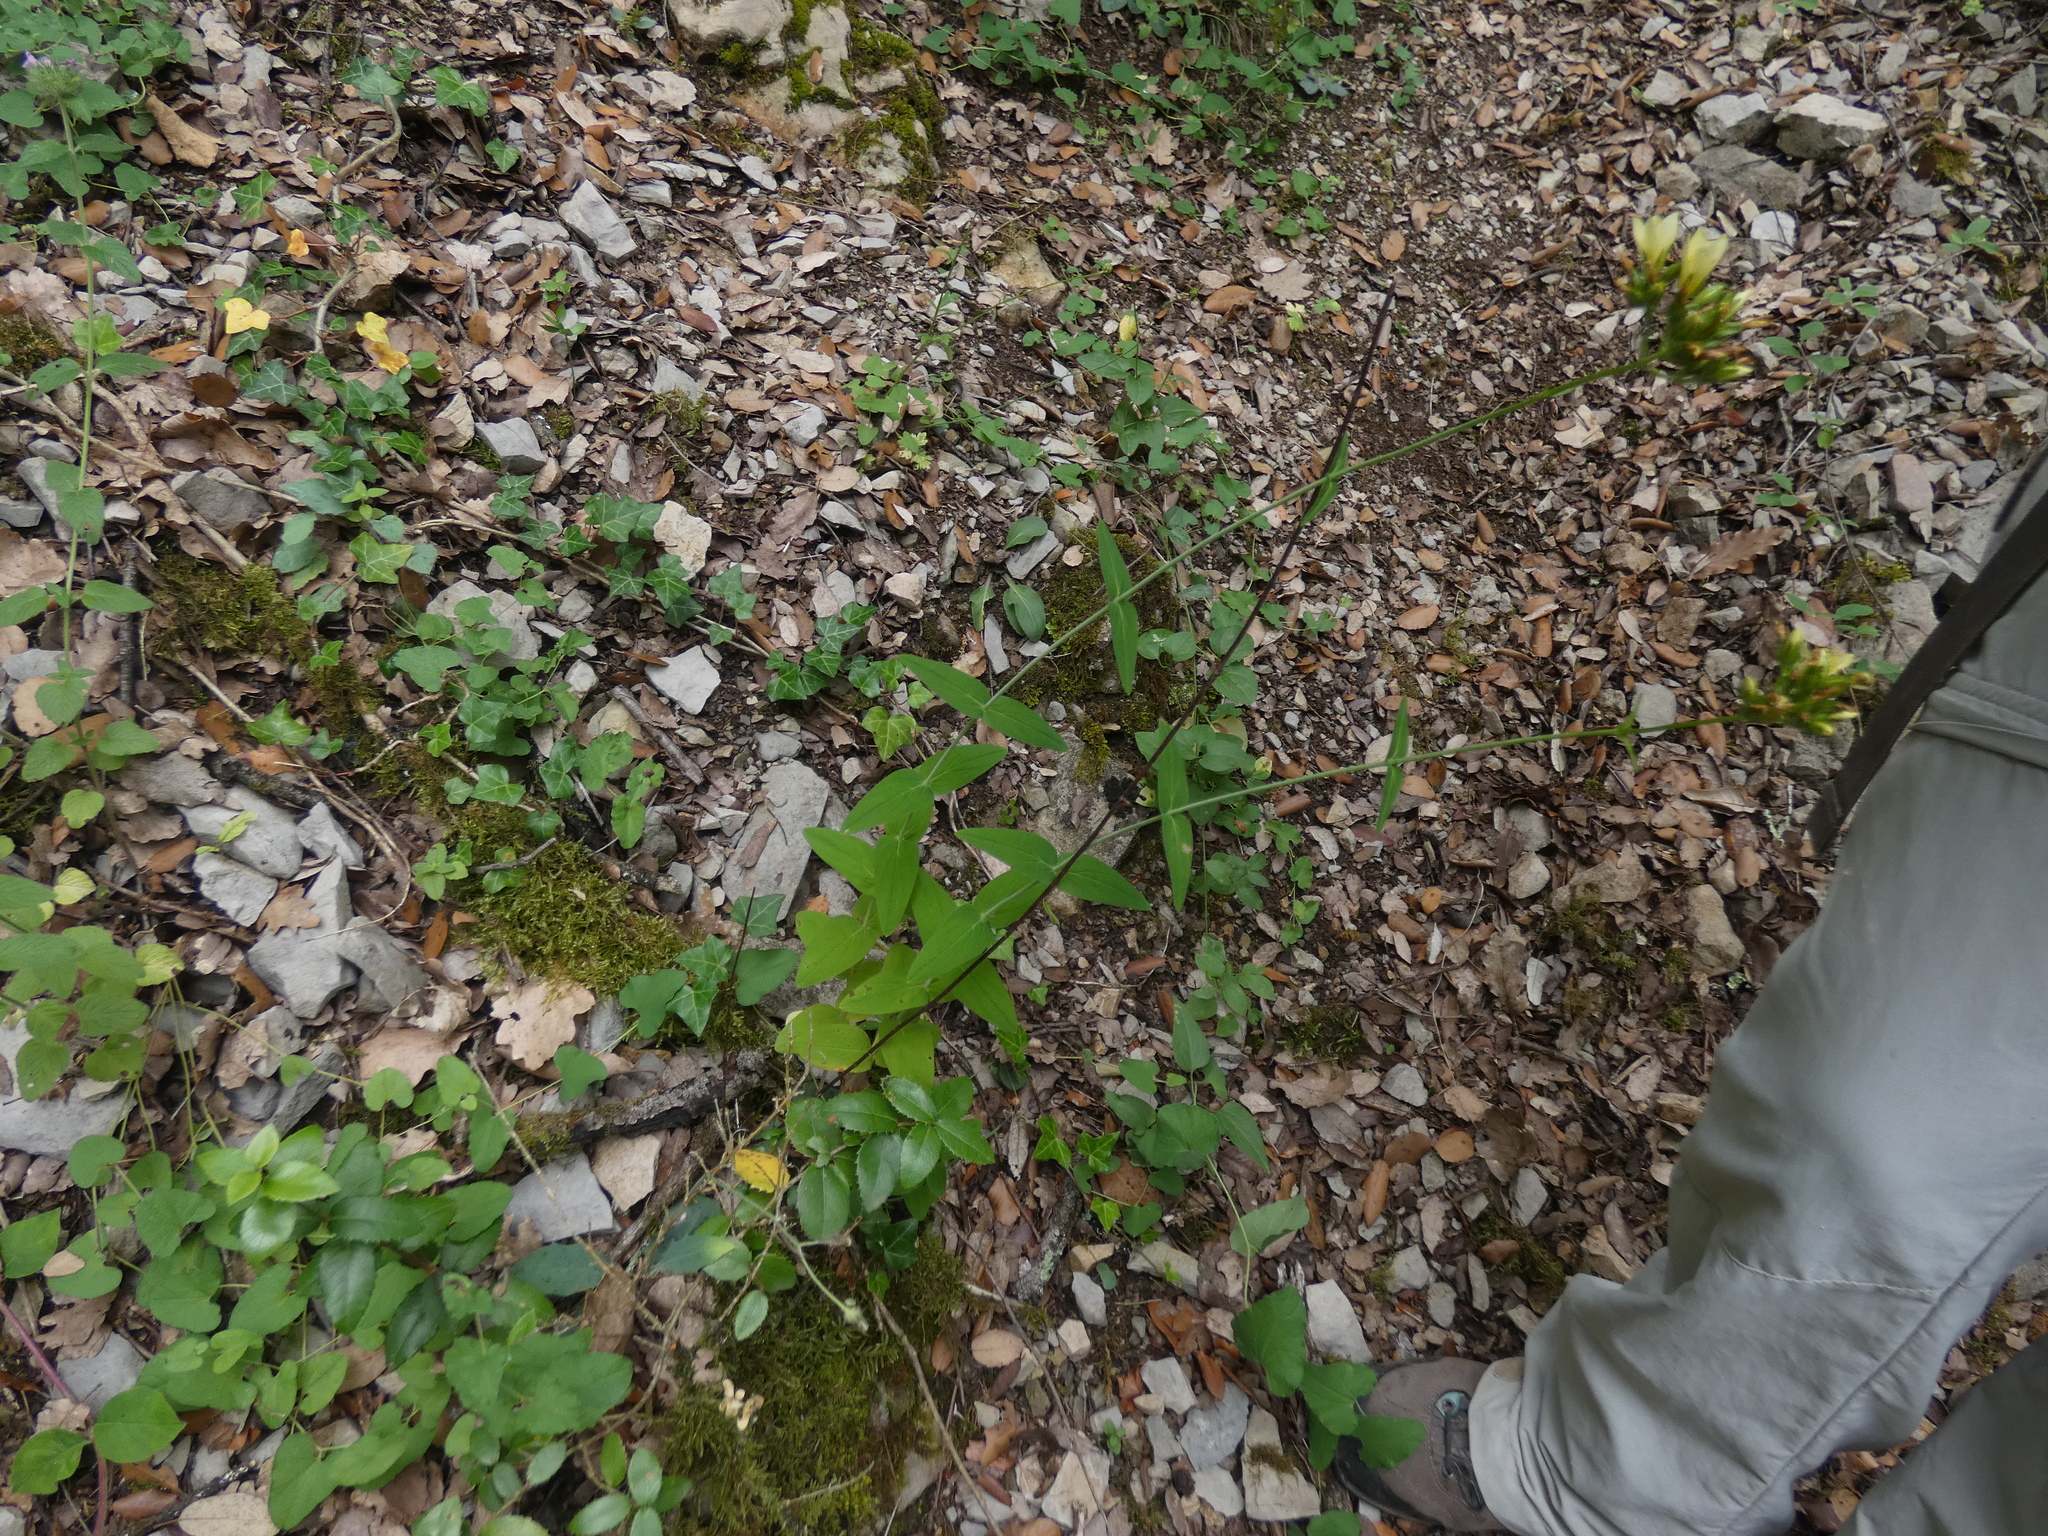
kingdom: Plantae
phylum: Tracheophyta
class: Magnoliopsida
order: Malpighiales
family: Hypericaceae
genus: Hypericum
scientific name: Hypericum montanum
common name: Pale st. john's-wort
